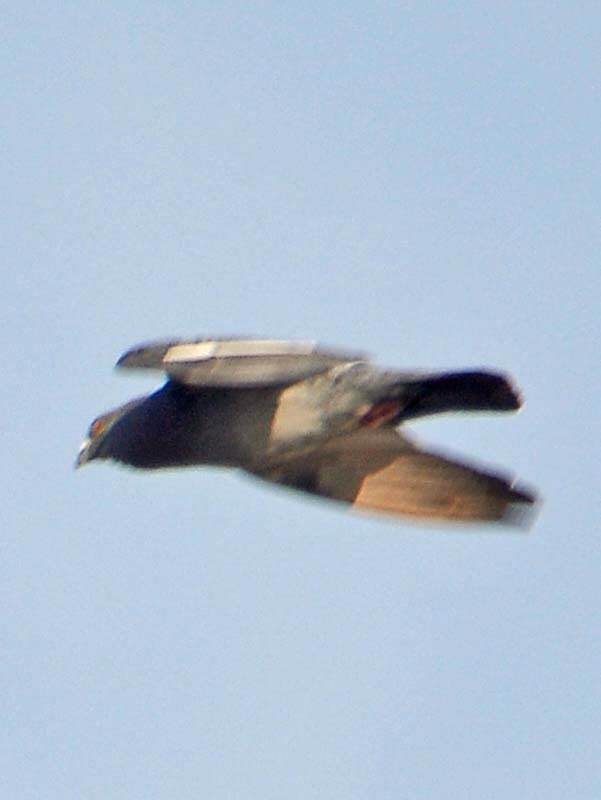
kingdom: Animalia
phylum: Chordata
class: Aves
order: Columbiformes
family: Columbidae
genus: Columba
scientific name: Columba livia
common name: Rock pigeon
